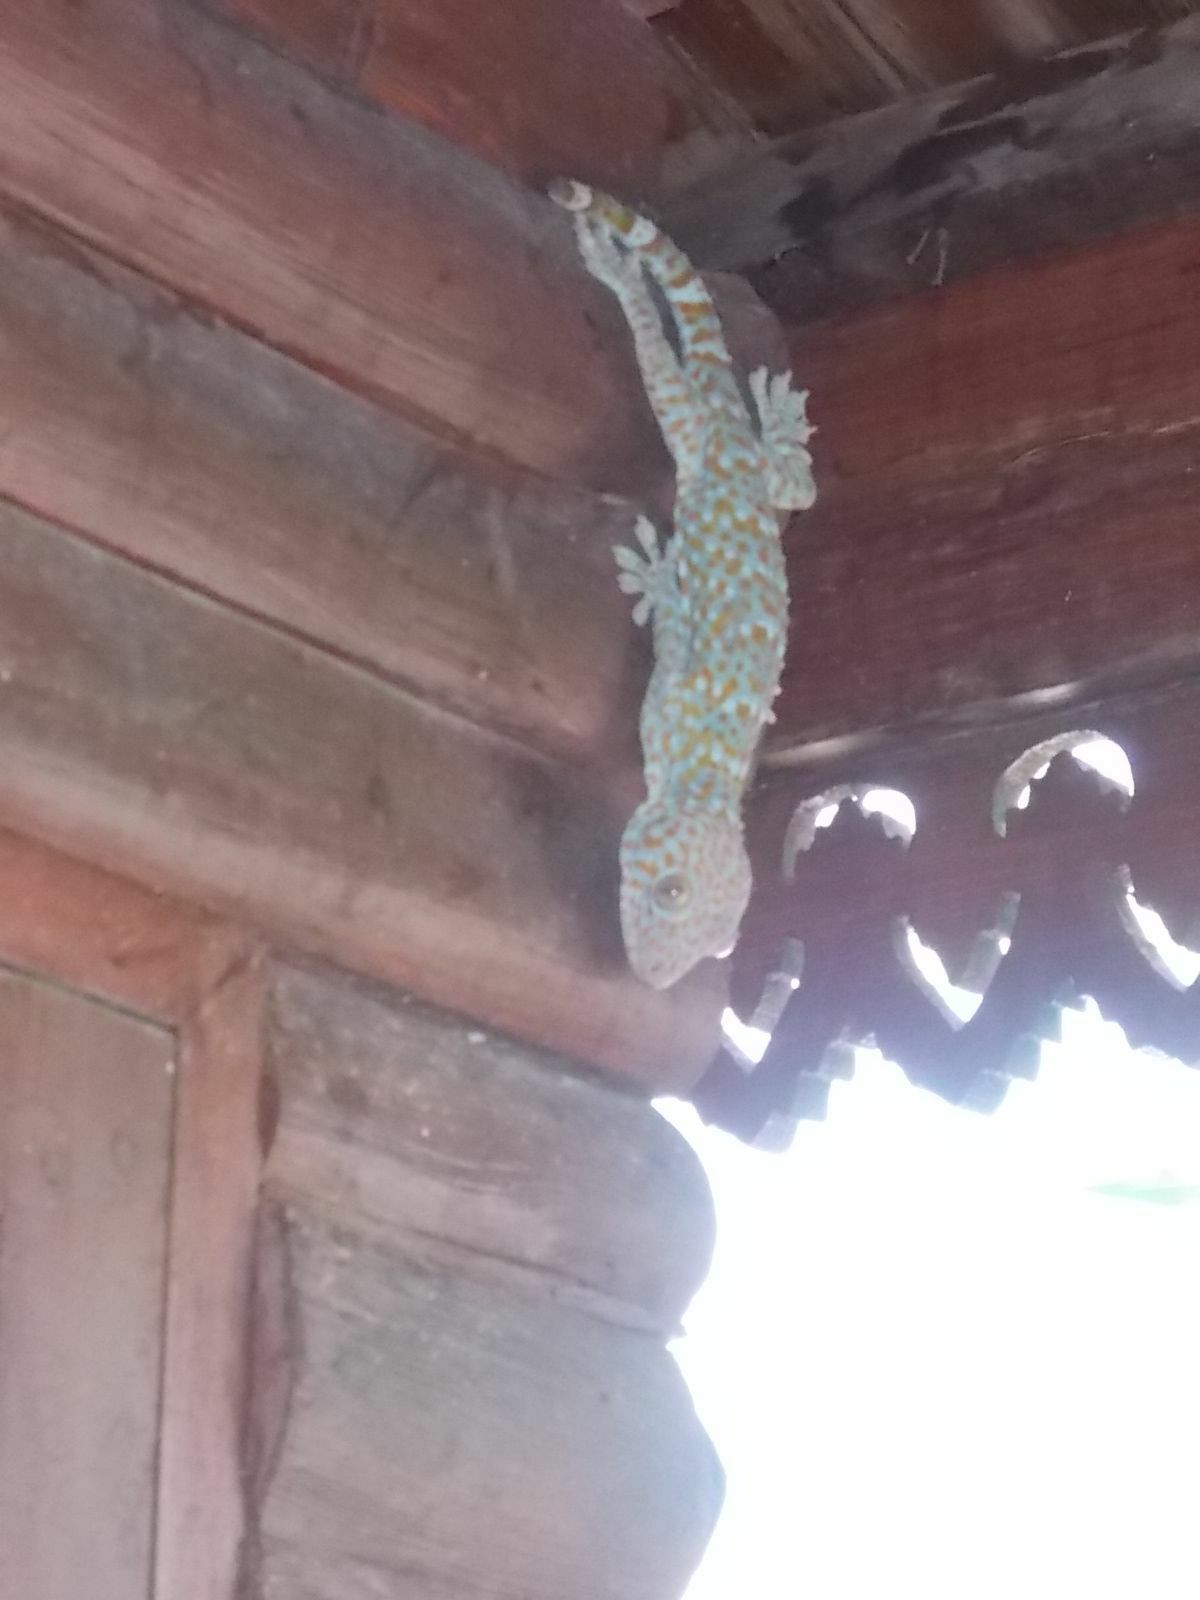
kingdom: Animalia
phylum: Chordata
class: Squamata
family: Gekkonidae
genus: Gekko
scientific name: Gekko gecko
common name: Tokay gecko
